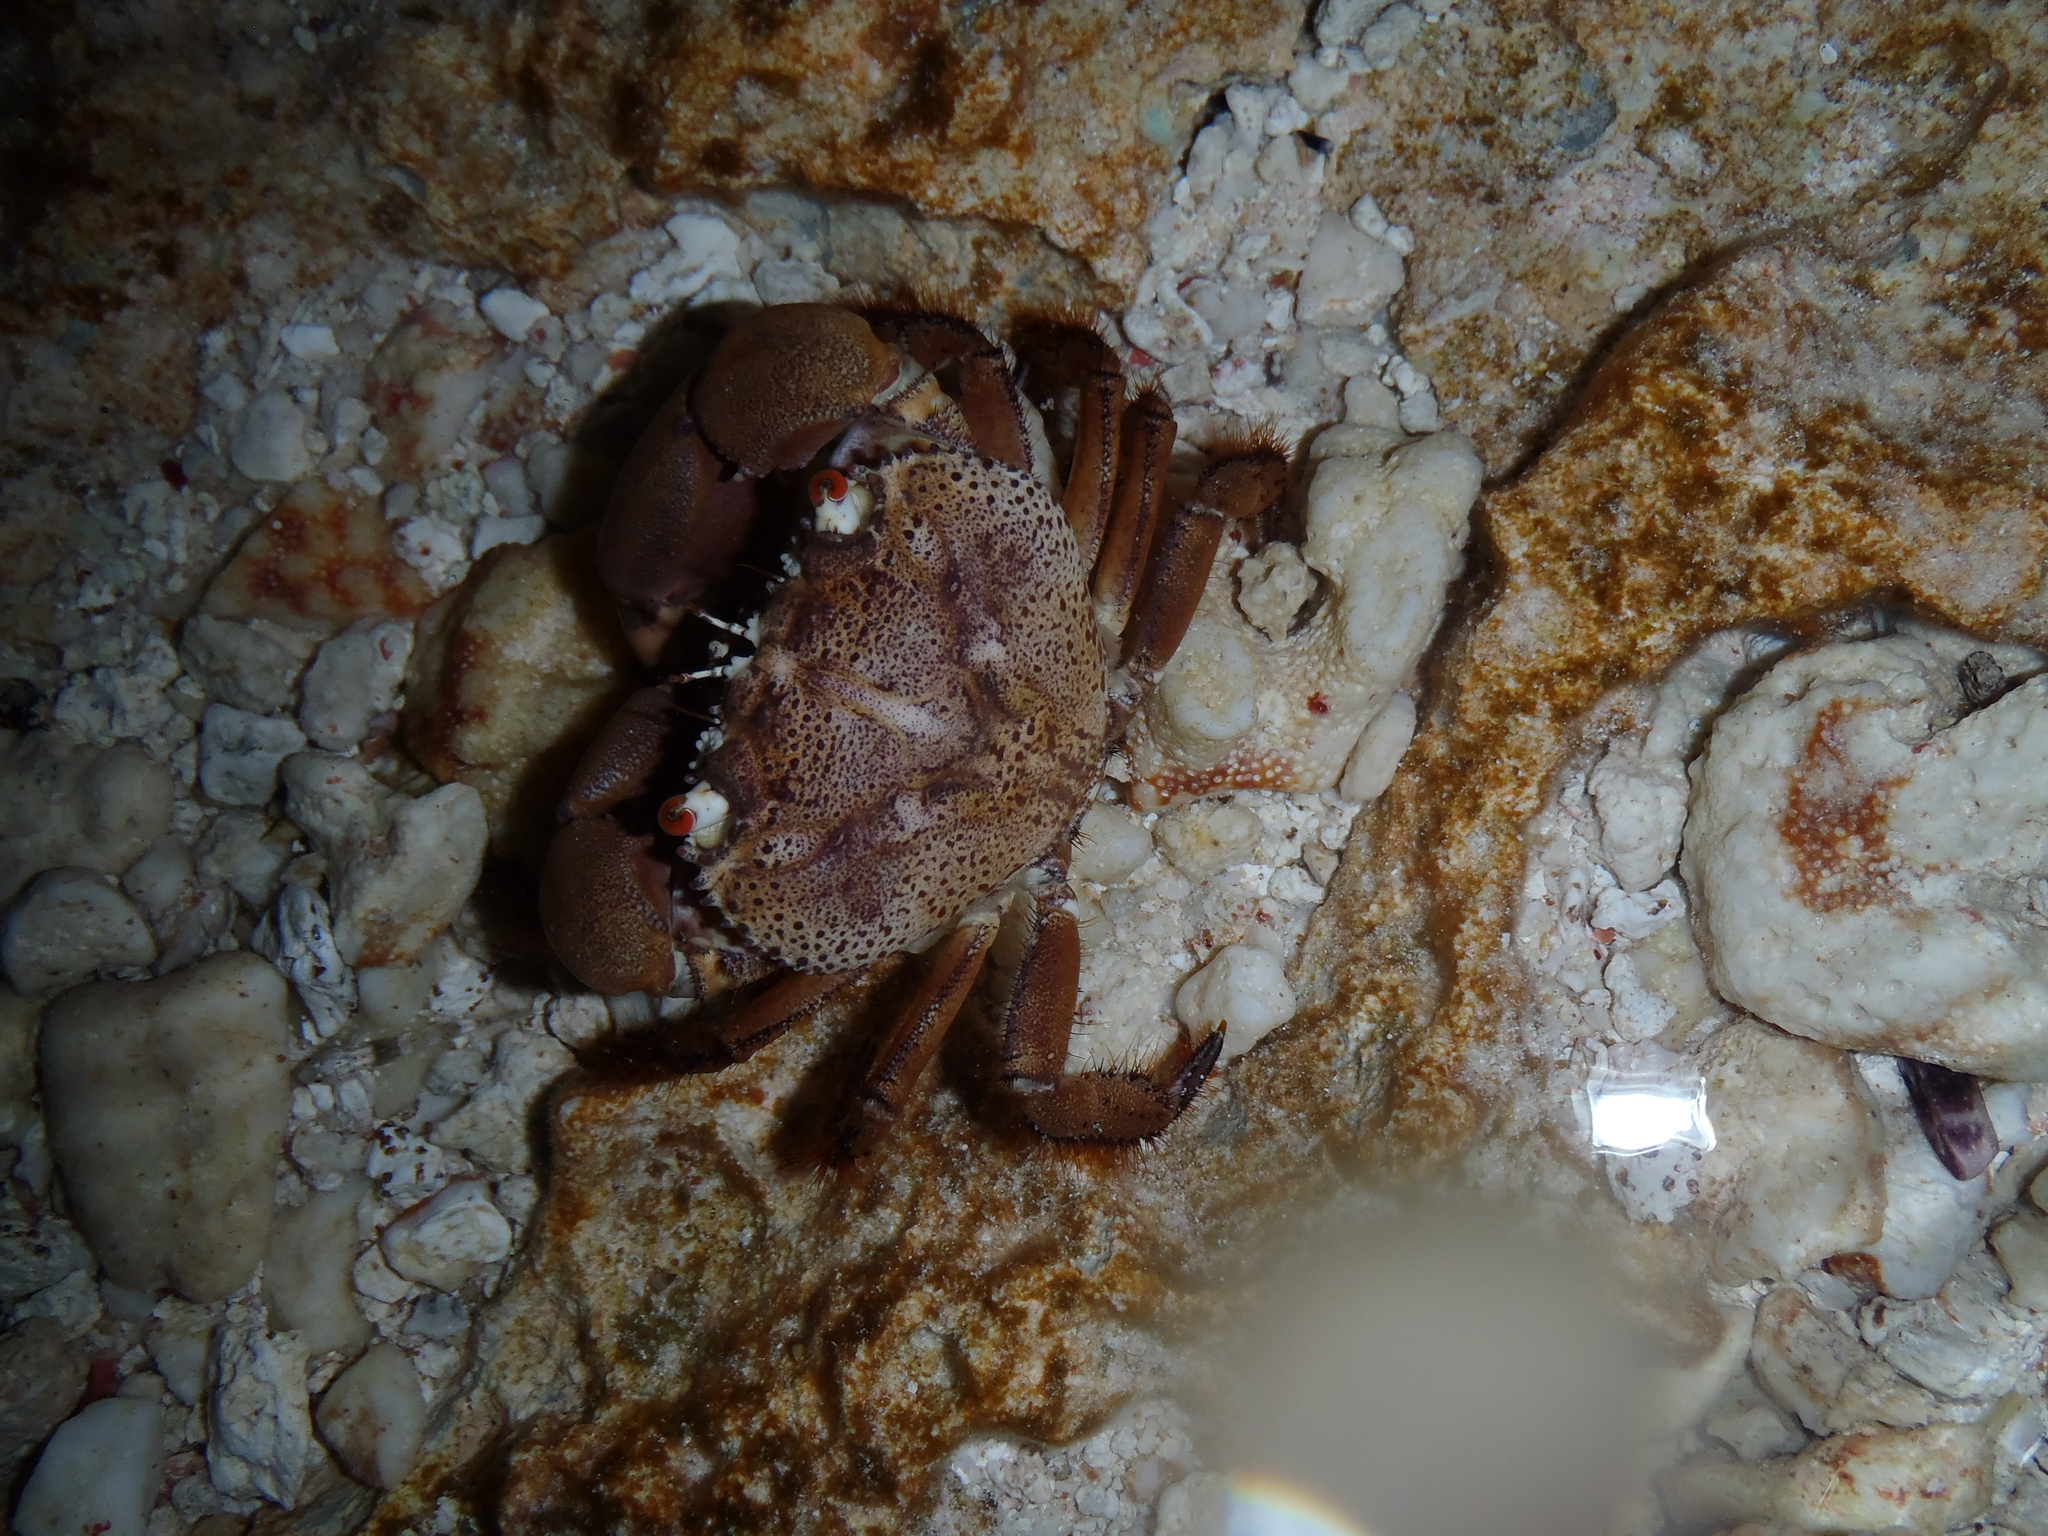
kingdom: Animalia
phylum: Arthropoda
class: Malacostraca
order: Decapoda
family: Eriphiidae
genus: Eriphia
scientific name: Eriphia sebana
